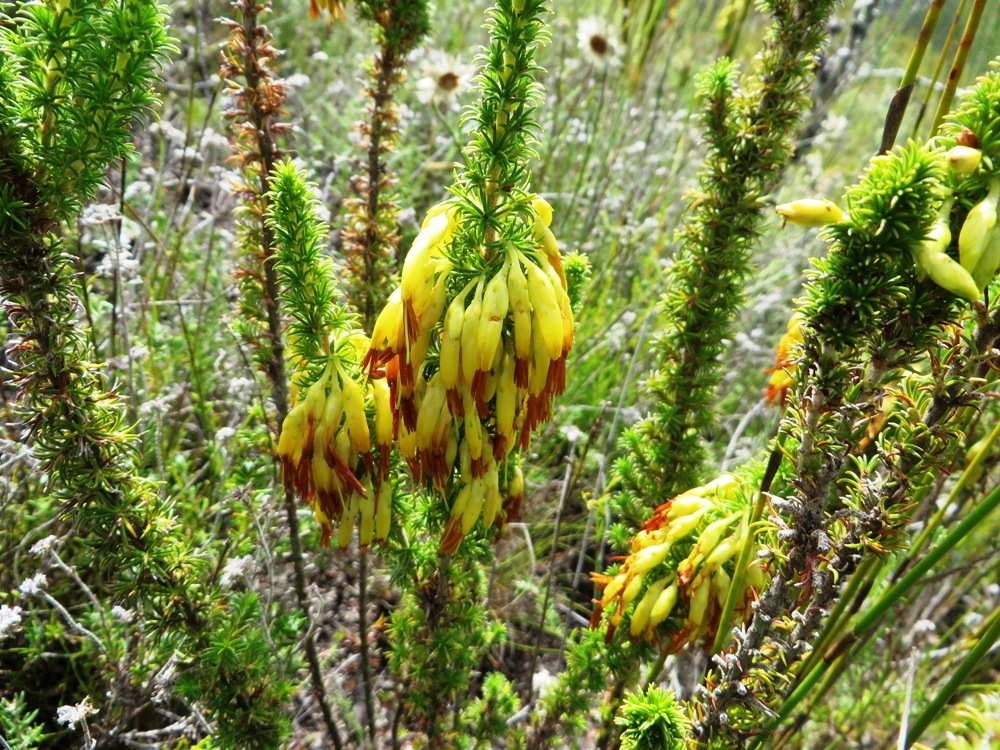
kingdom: Plantae
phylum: Tracheophyta
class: Magnoliopsida
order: Ericales
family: Ericaceae
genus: Erica
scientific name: Erica coccinea
